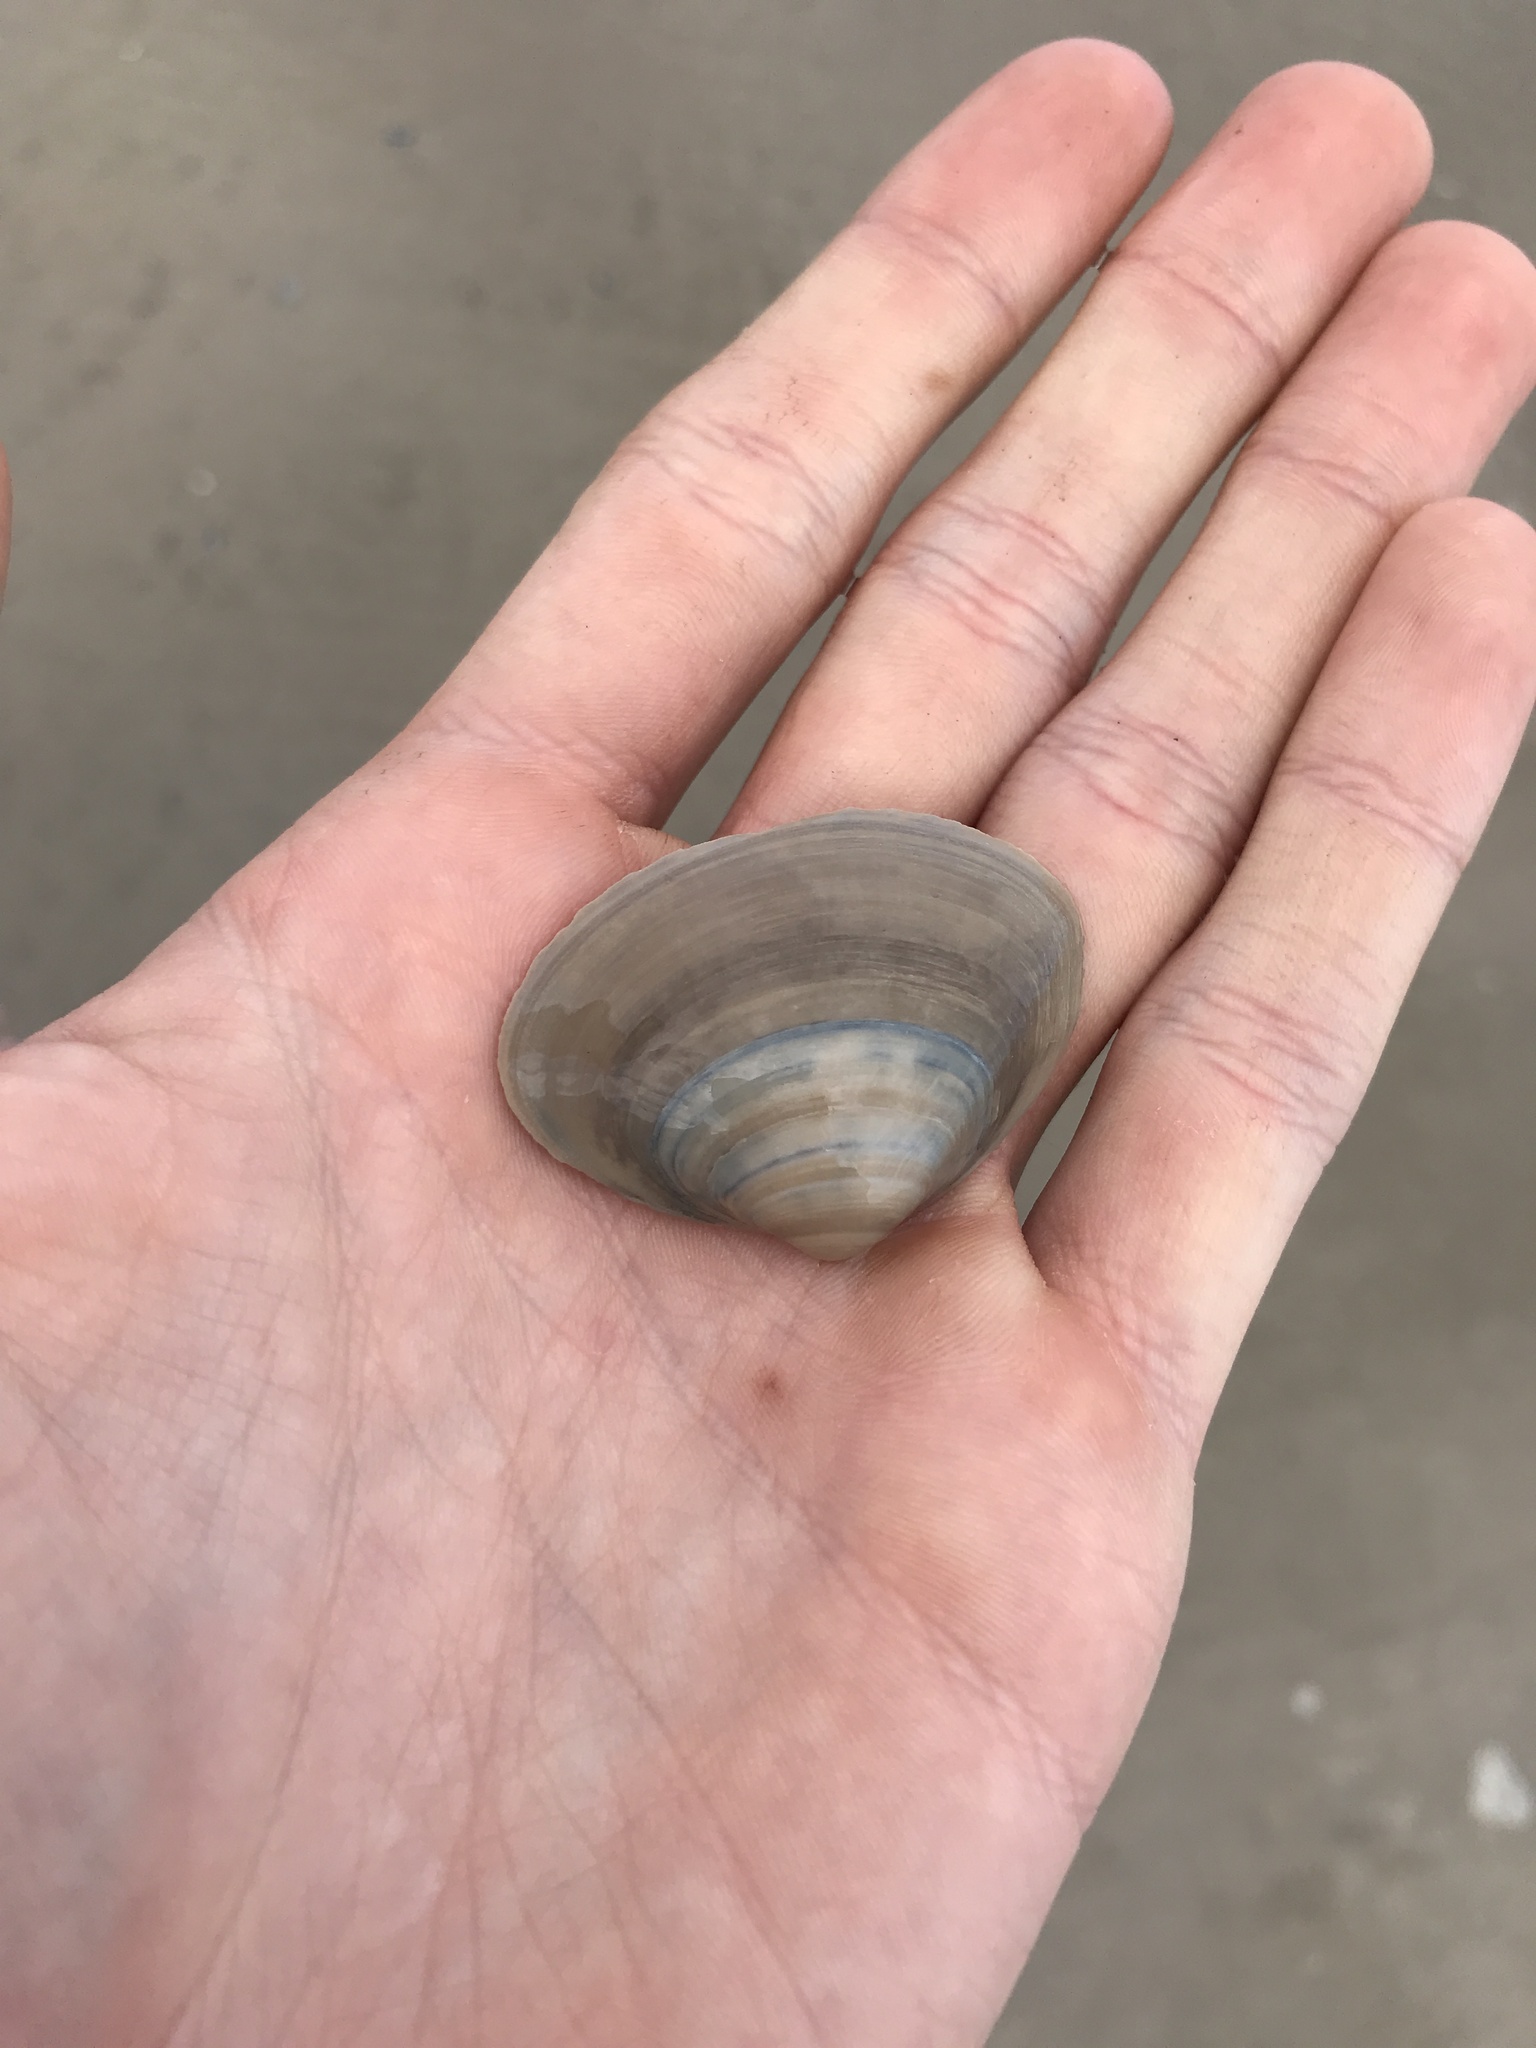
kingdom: Animalia
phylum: Mollusca
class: Bivalvia
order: Venerida
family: Mactridae
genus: Spisula
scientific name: Spisula solidissima
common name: Atlantic surf clam
